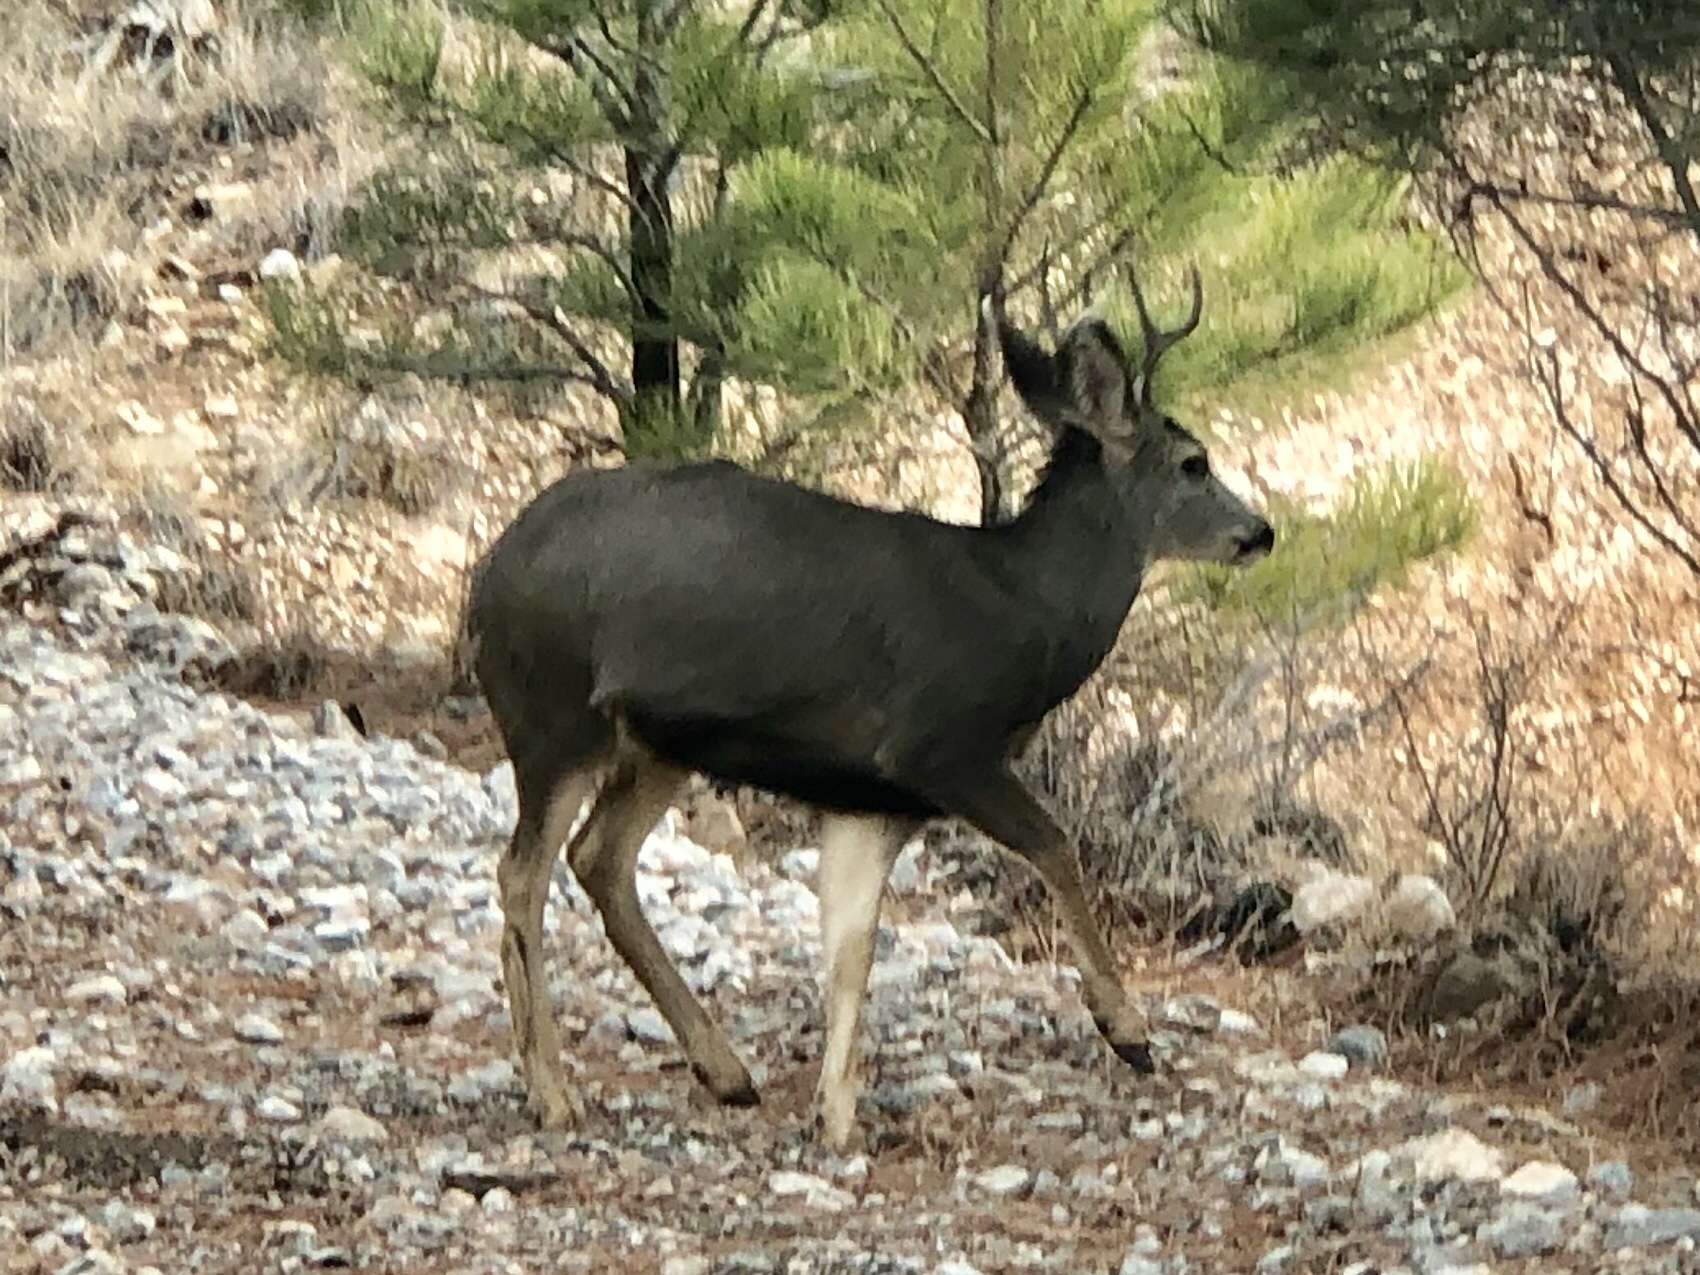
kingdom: Animalia
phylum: Chordata
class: Mammalia
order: Artiodactyla
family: Cervidae
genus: Odocoileus
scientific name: Odocoileus hemionus
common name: Mule deer
